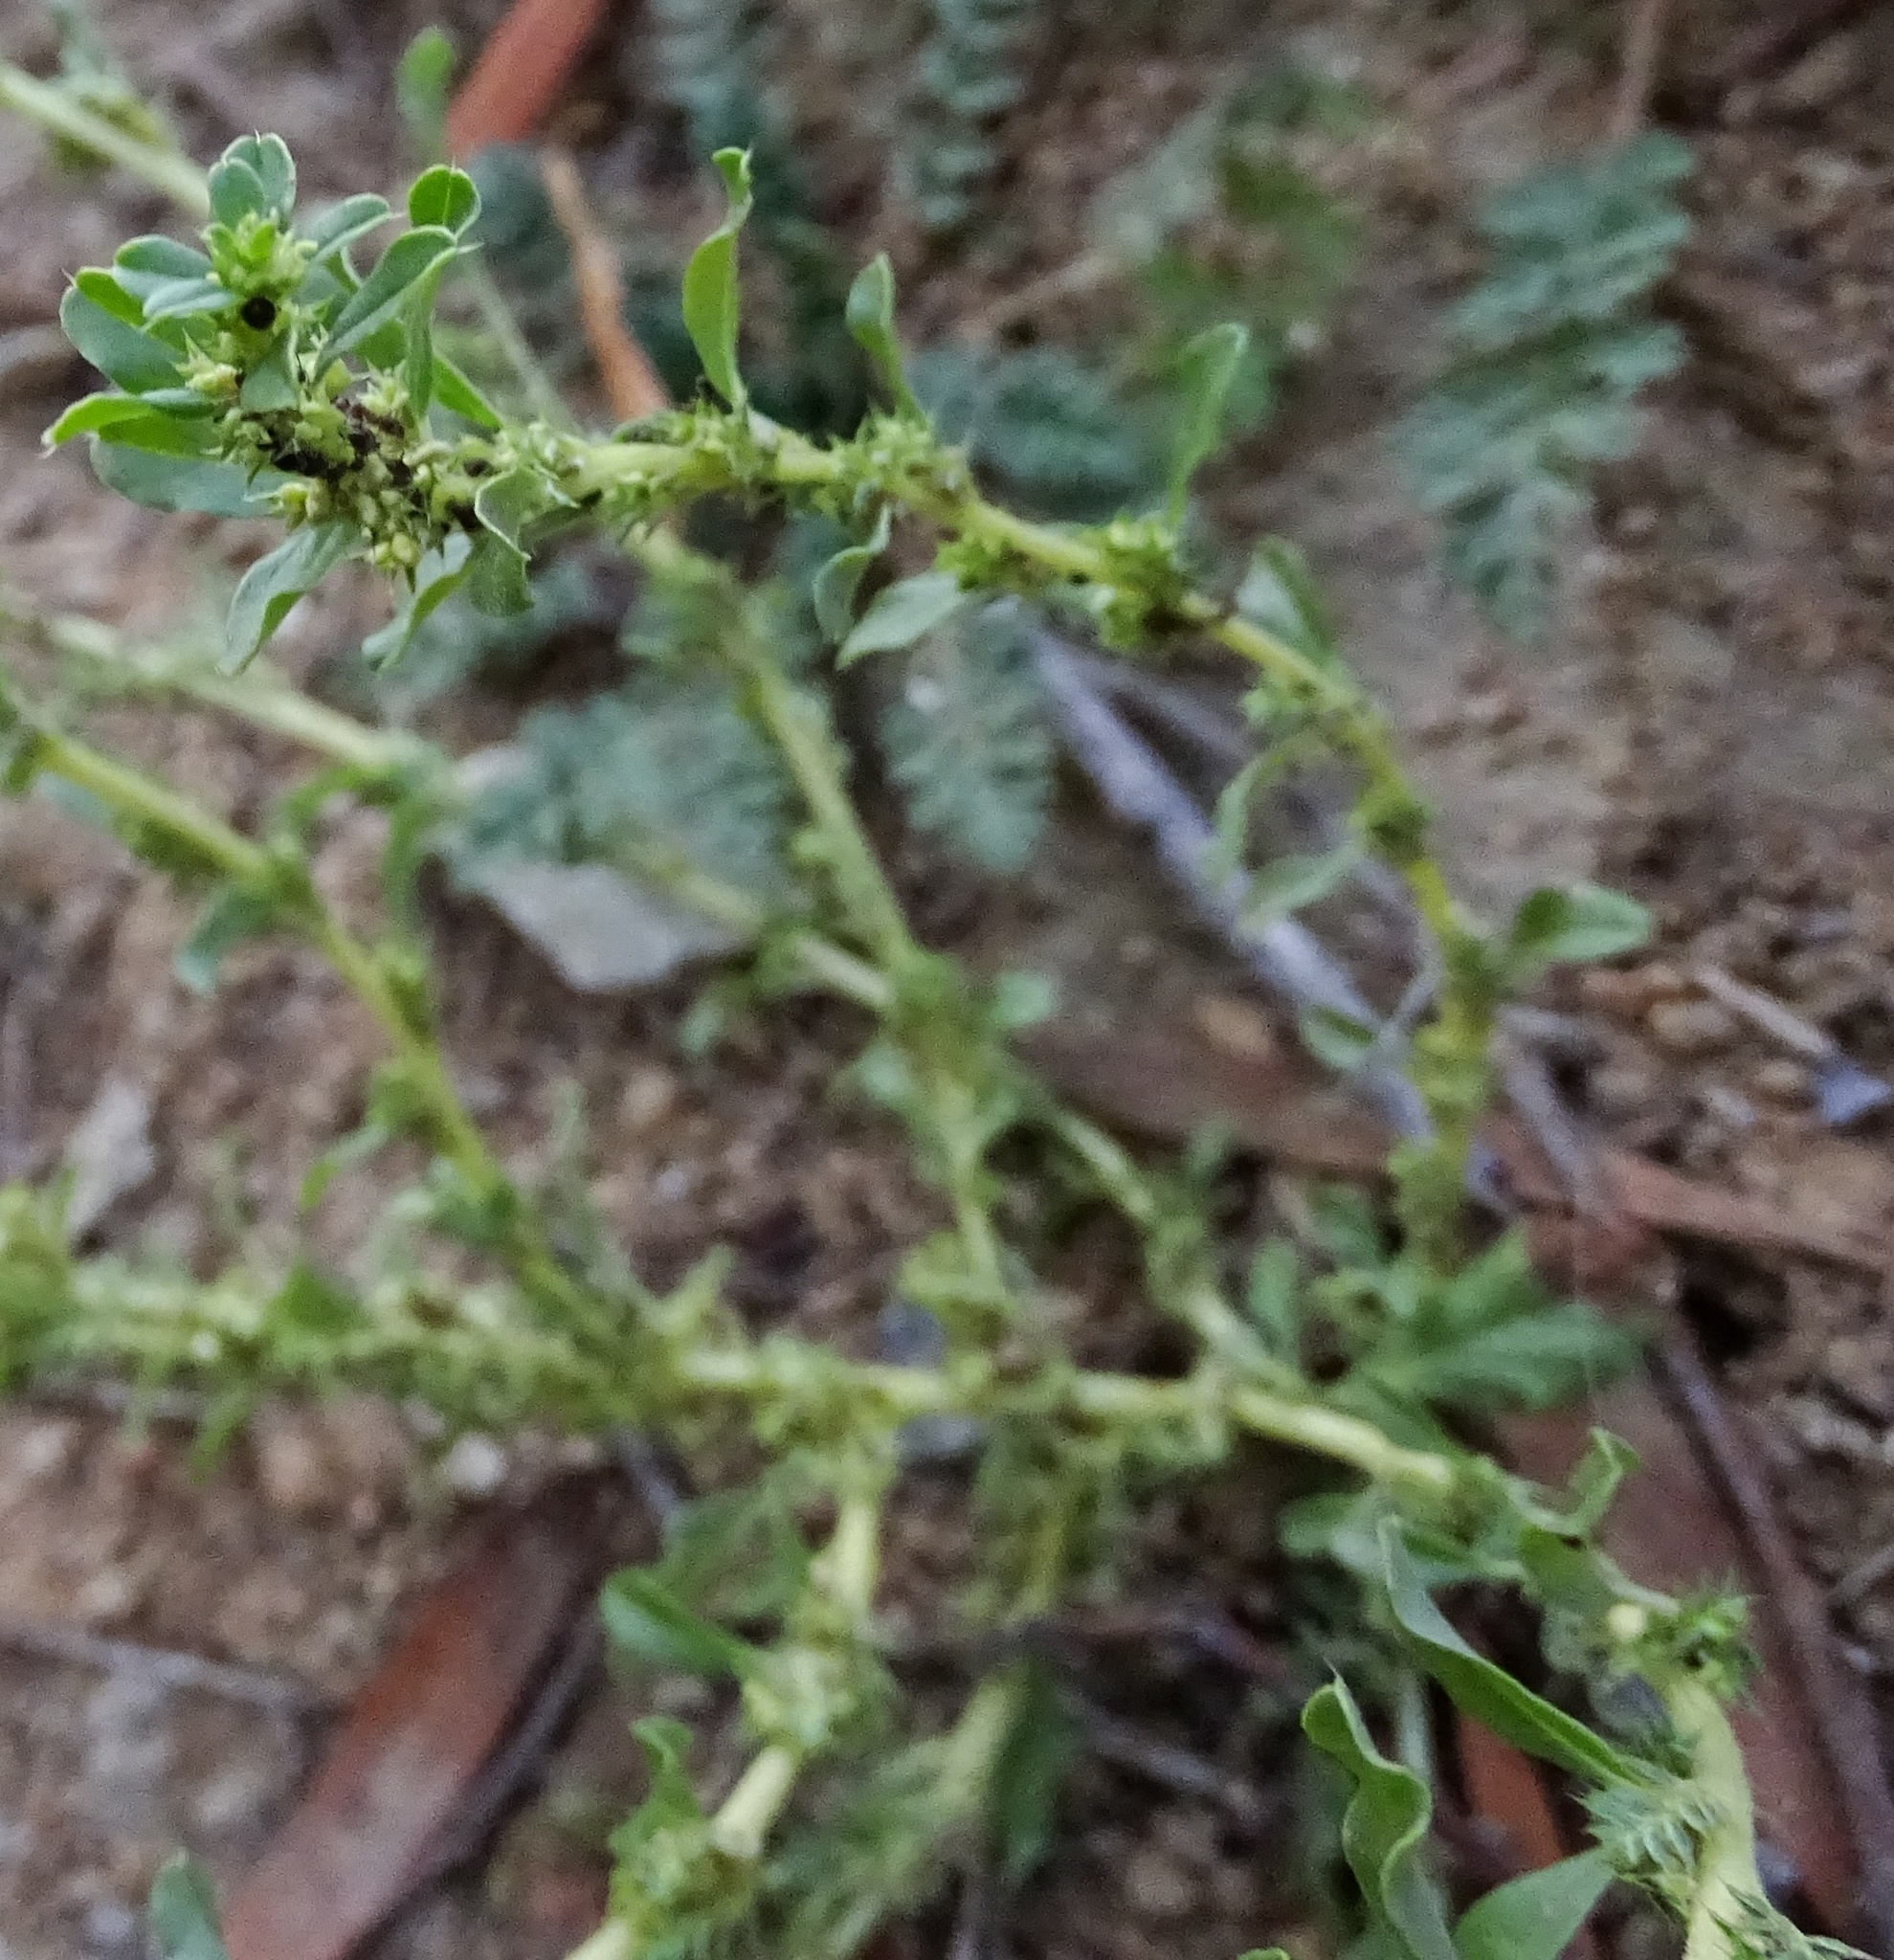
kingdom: Plantae
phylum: Tracheophyta
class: Magnoliopsida
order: Caryophyllales
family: Amaranthaceae
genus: Amaranthus
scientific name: Amaranthus albus
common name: White pigweed
